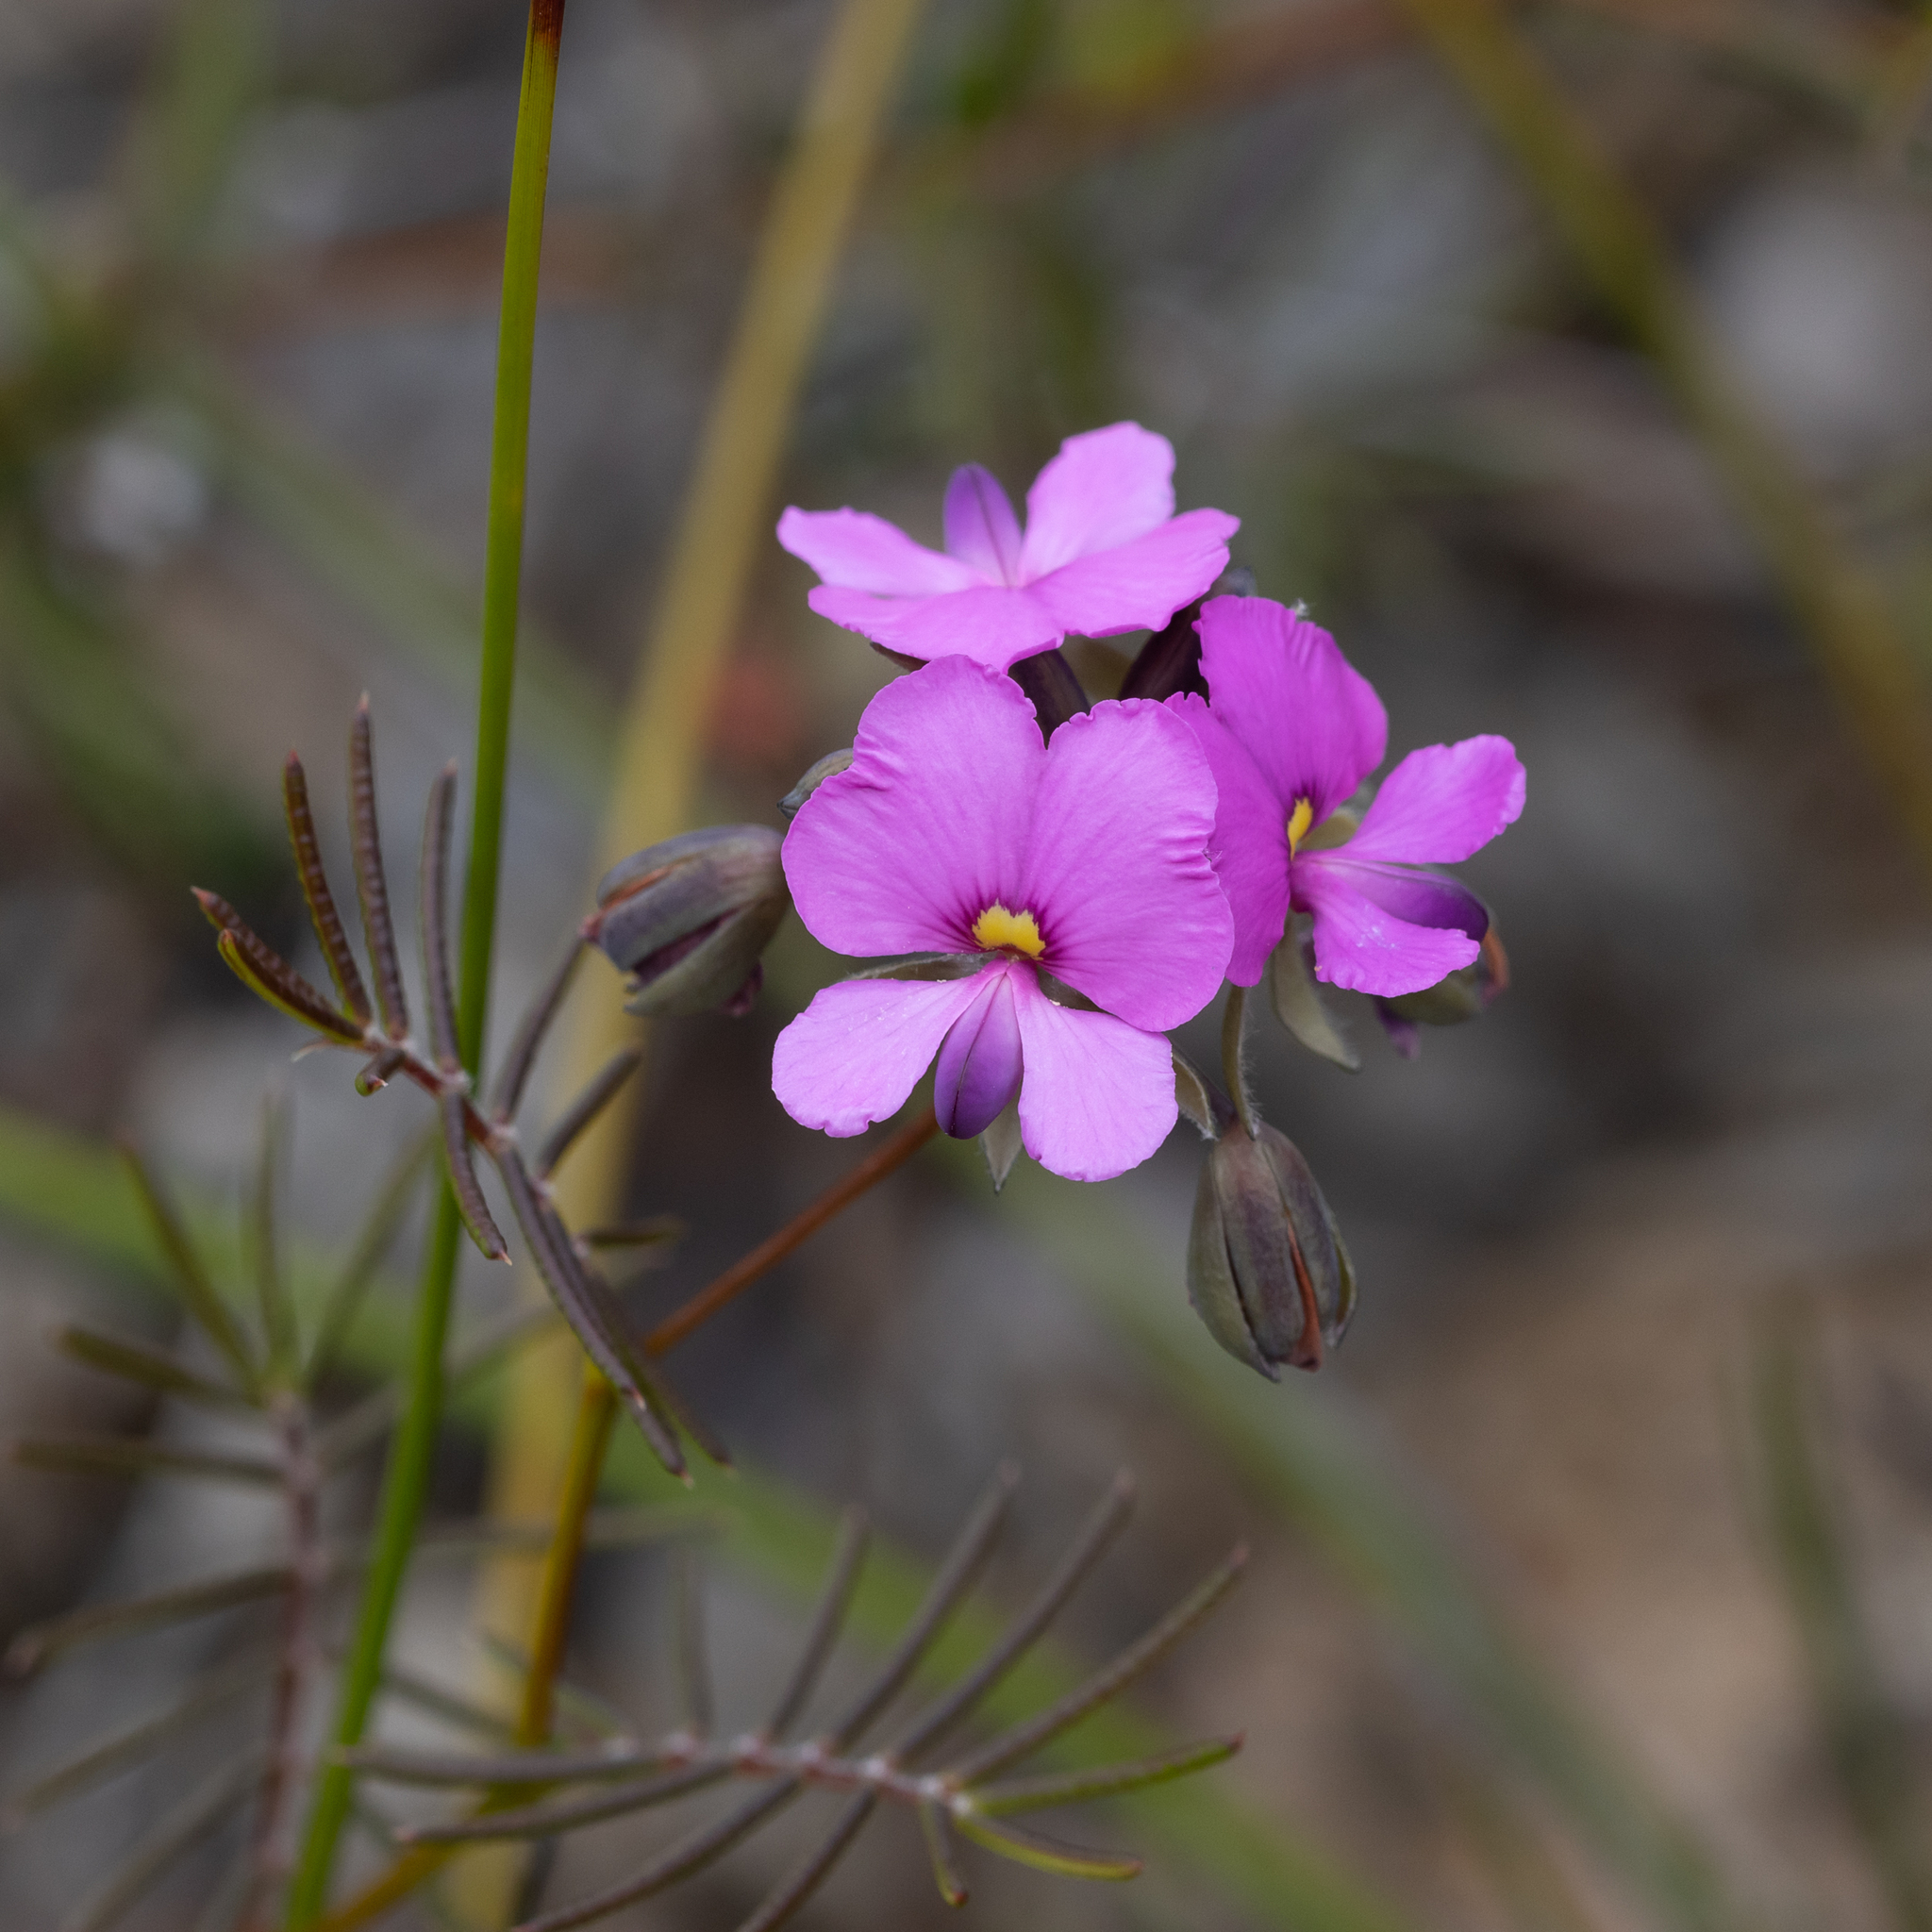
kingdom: Plantae
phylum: Tracheophyta
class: Magnoliopsida
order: Fabales
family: Fabaceae
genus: Gompholobium
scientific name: Gompholobium venustum
